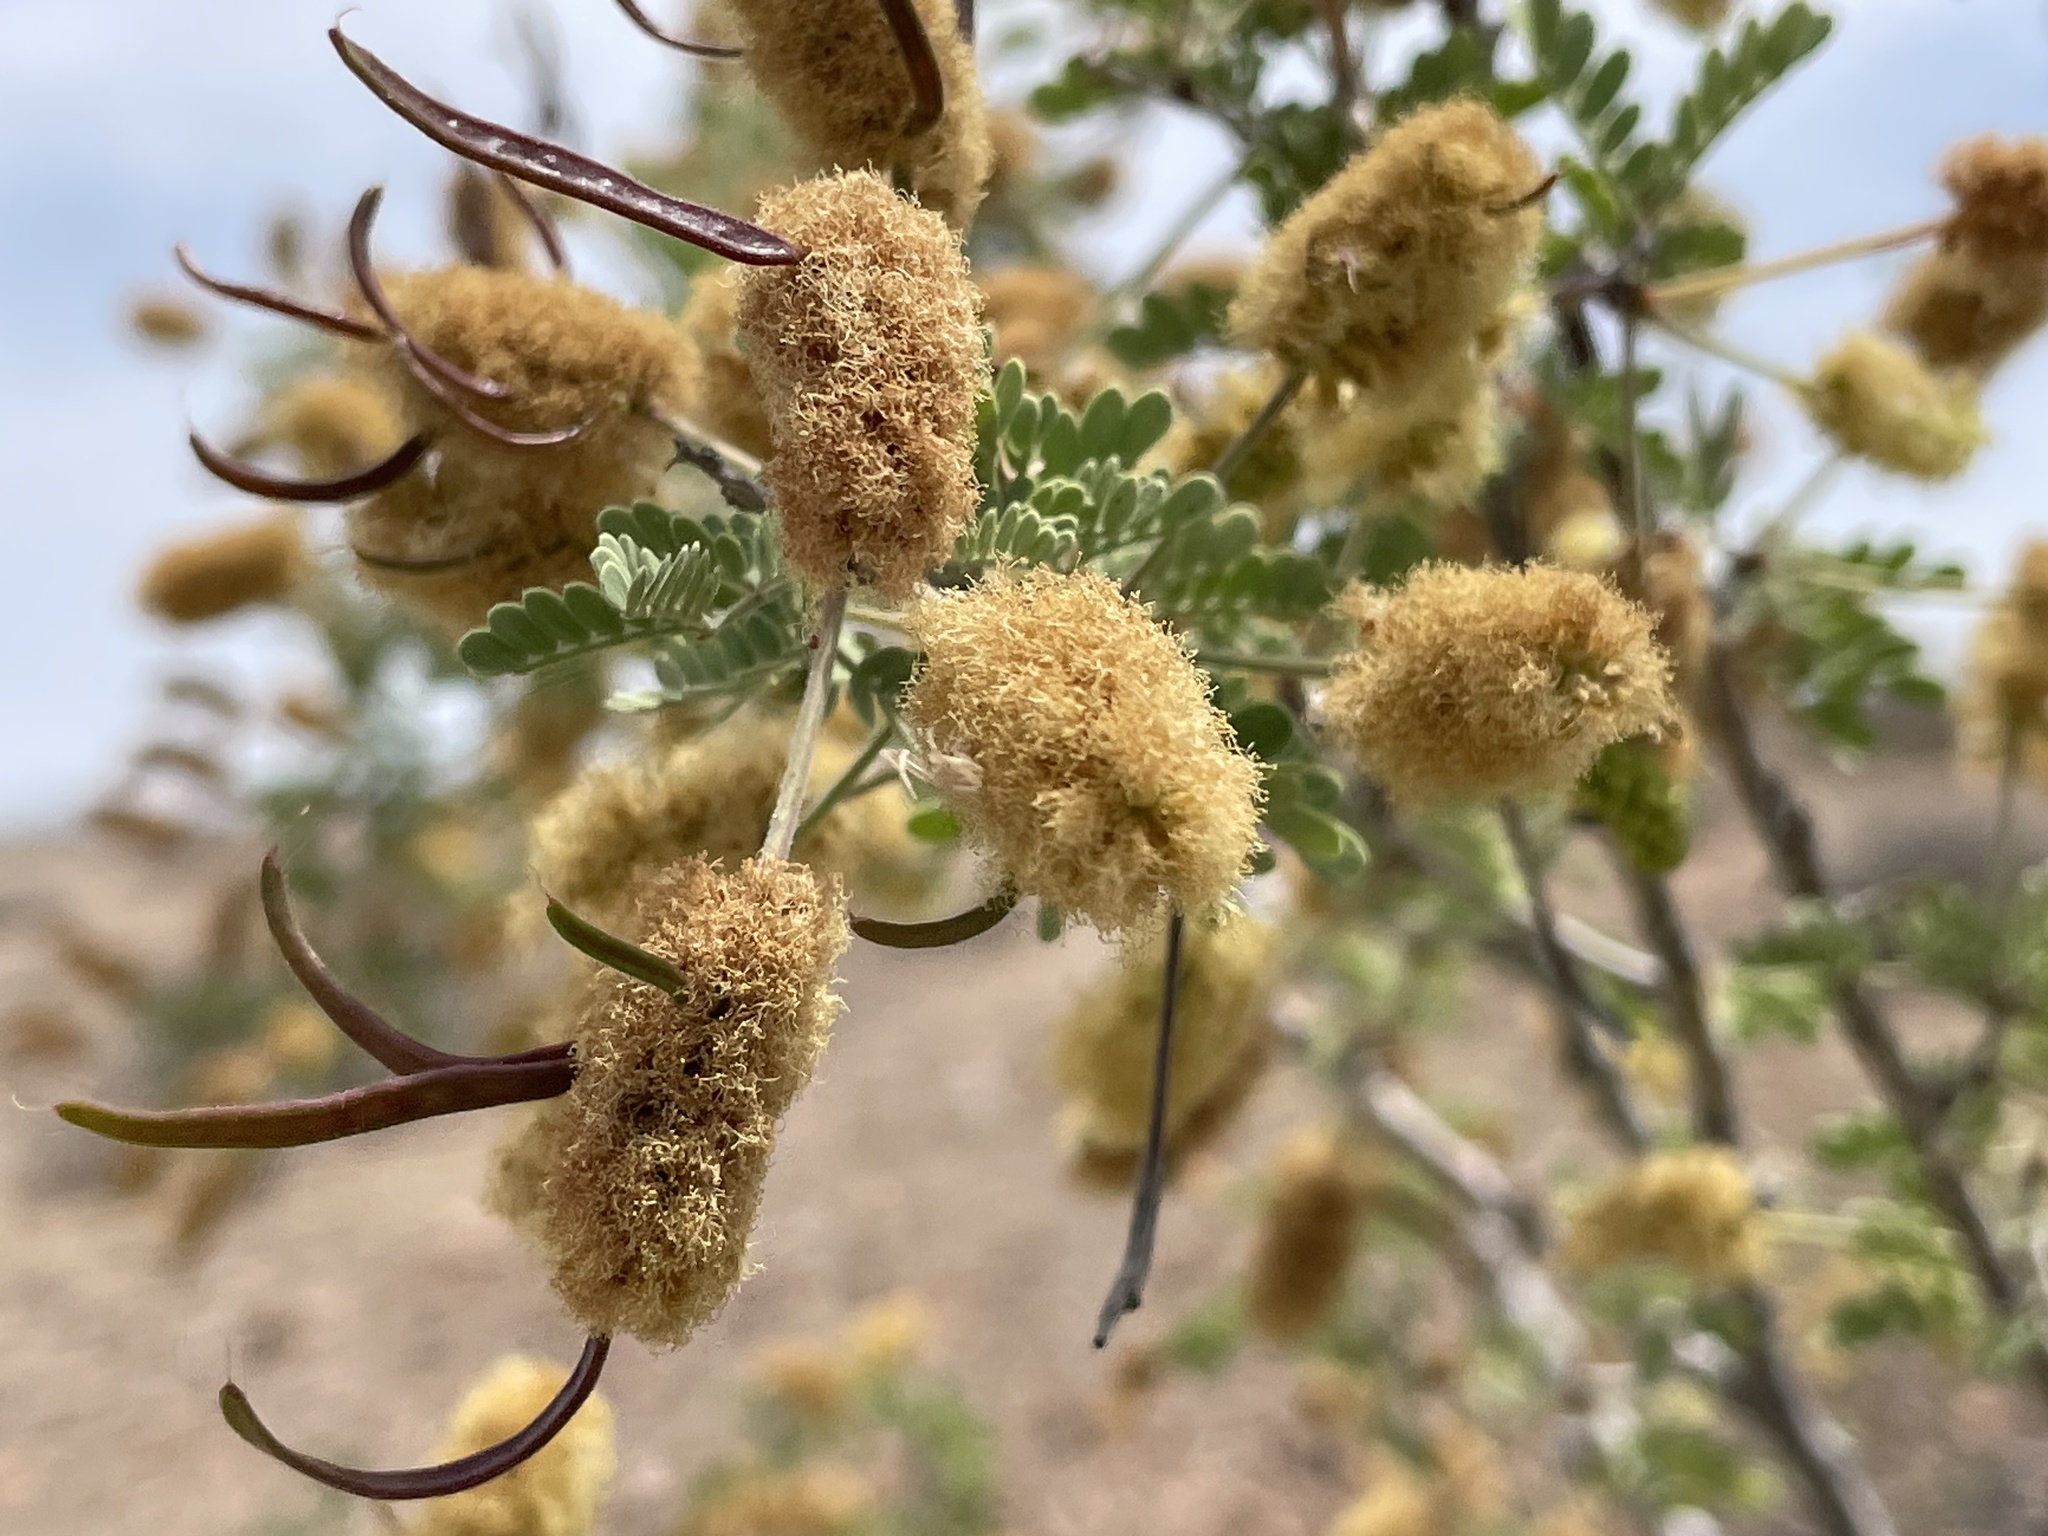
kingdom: Plantae
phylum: Tracheophyta
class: Magnoliopsida
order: Fabales
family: Fabaceae
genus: Senegalia
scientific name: Senegalia greggii
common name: Texas-mimosa
